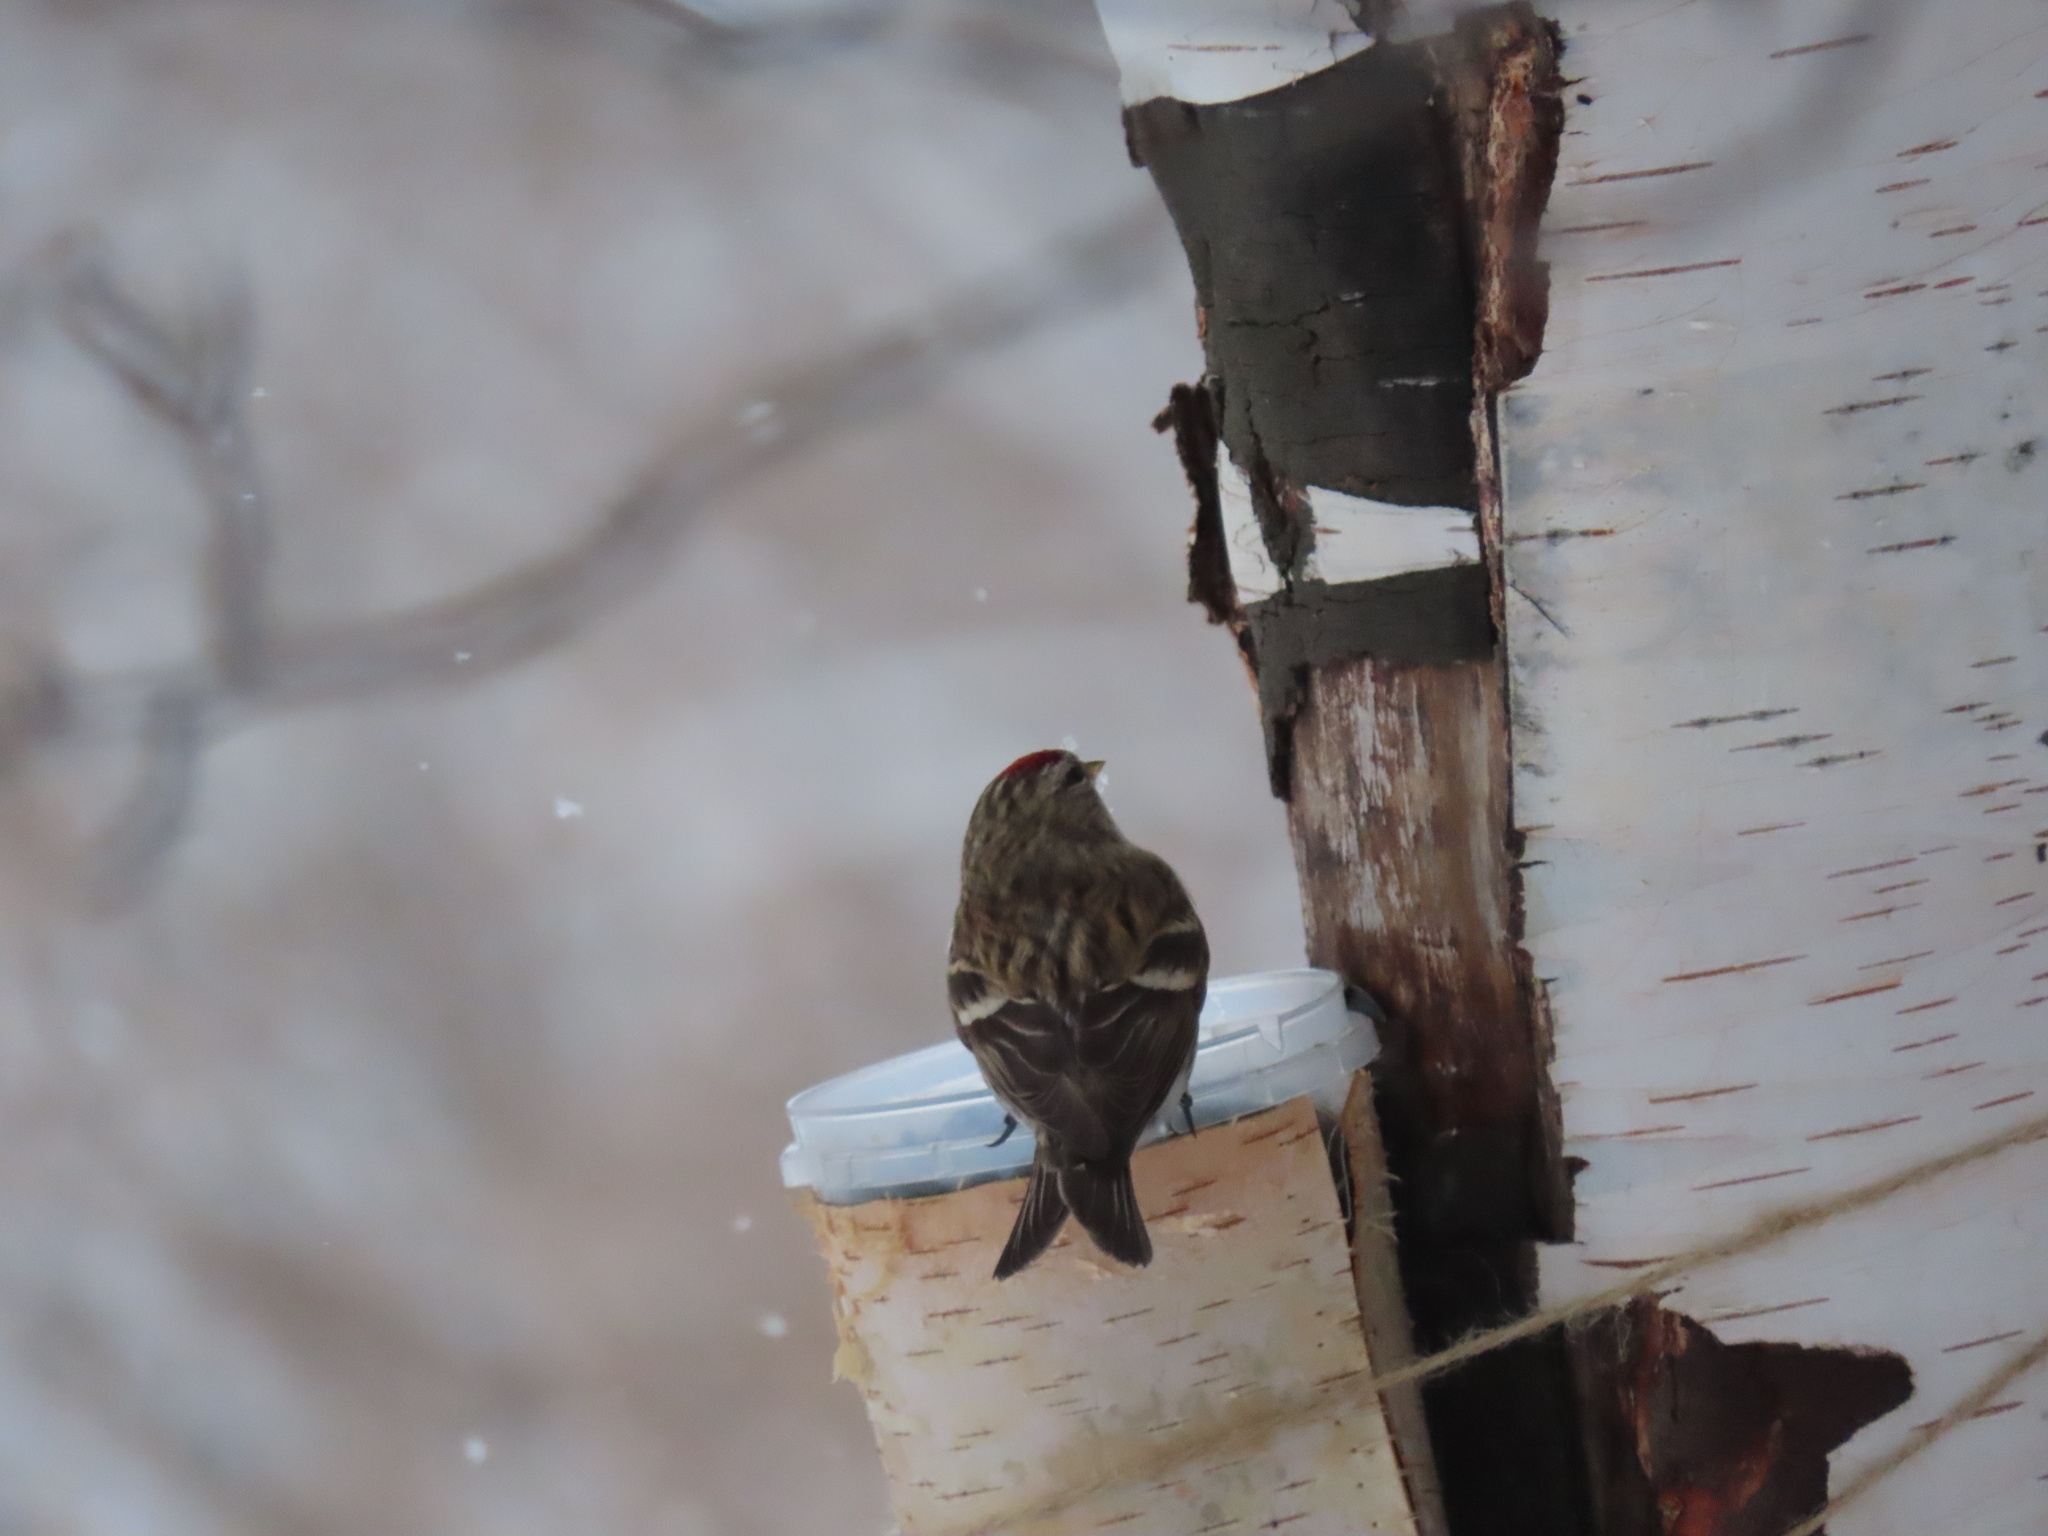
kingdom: Animalia
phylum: Chordata
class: Aves
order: Passeriformes
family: Fringillidae
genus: Acanthis
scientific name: Acanthis flammea
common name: Common redpoll
